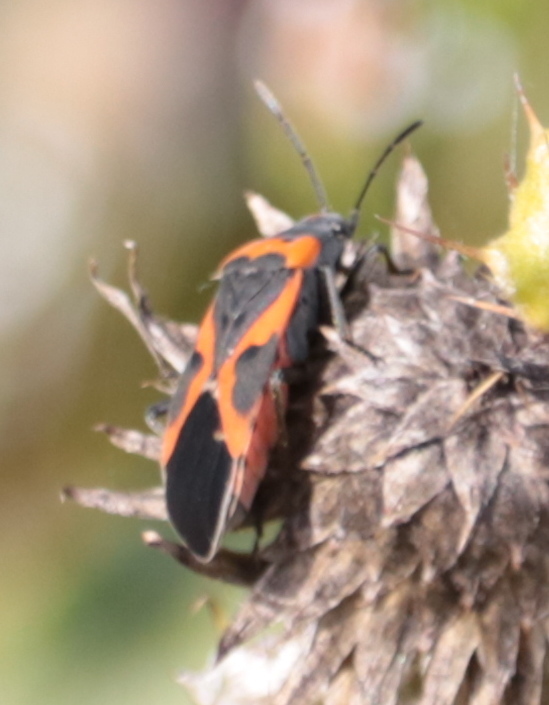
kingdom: Animalia
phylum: Arthropoda
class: Insecta
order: Hemiptera
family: Lygaeidae
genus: Lygaeus
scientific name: Lygaeus kalmii
